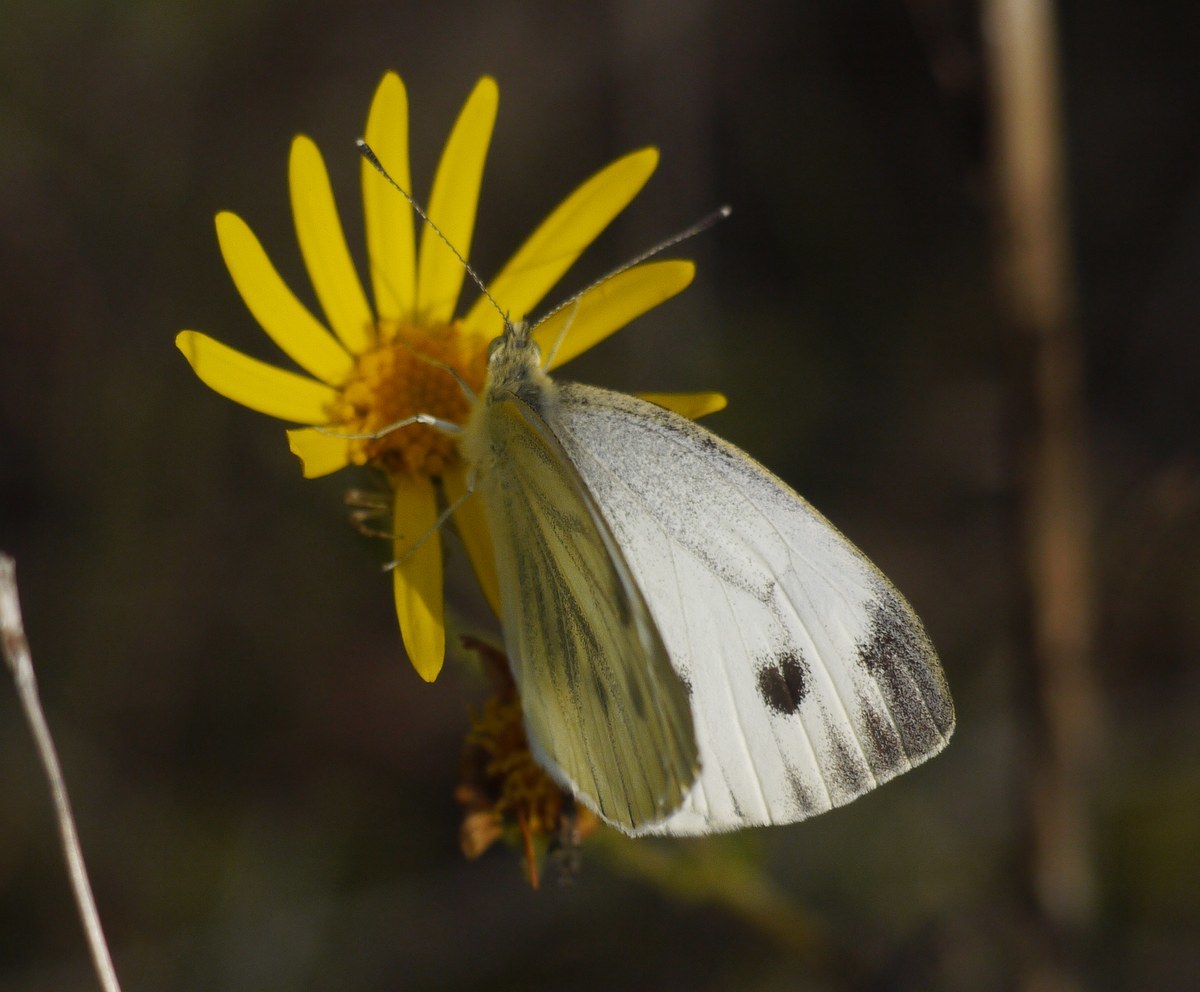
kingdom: Animalia
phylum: Arthropoda
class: Insecta
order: Lepidoptera
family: Pieridae
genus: Pieris
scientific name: Pieris napi
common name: Green-veined white
